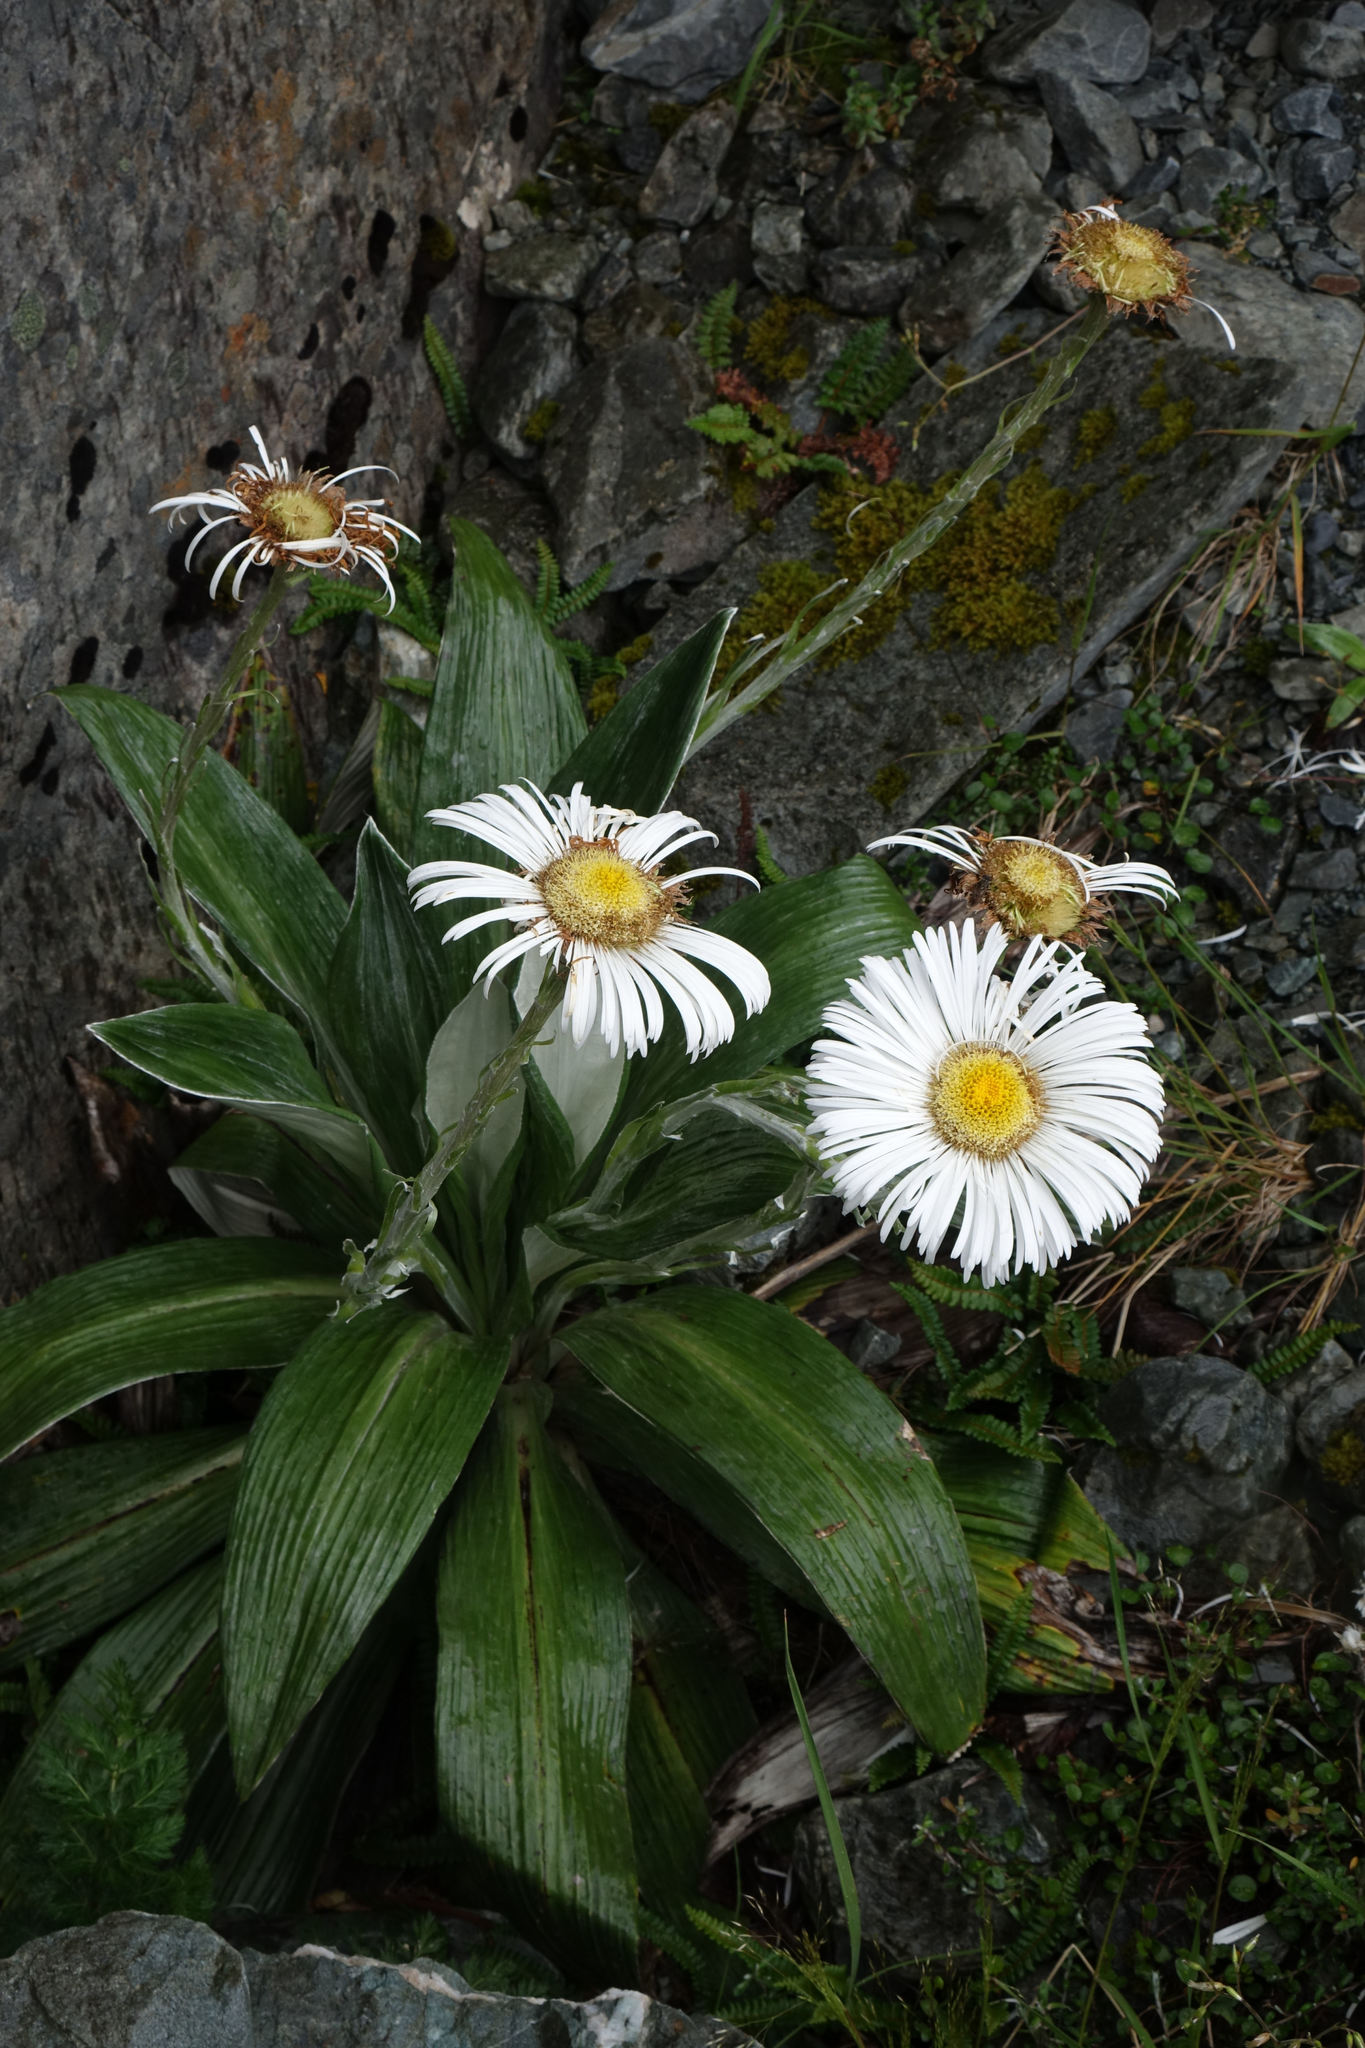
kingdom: Plantae
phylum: Tracheophyta
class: Magnoliopsida
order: Asterales
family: Asteraceae
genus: Celmisia
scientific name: Celmisia semicordata
